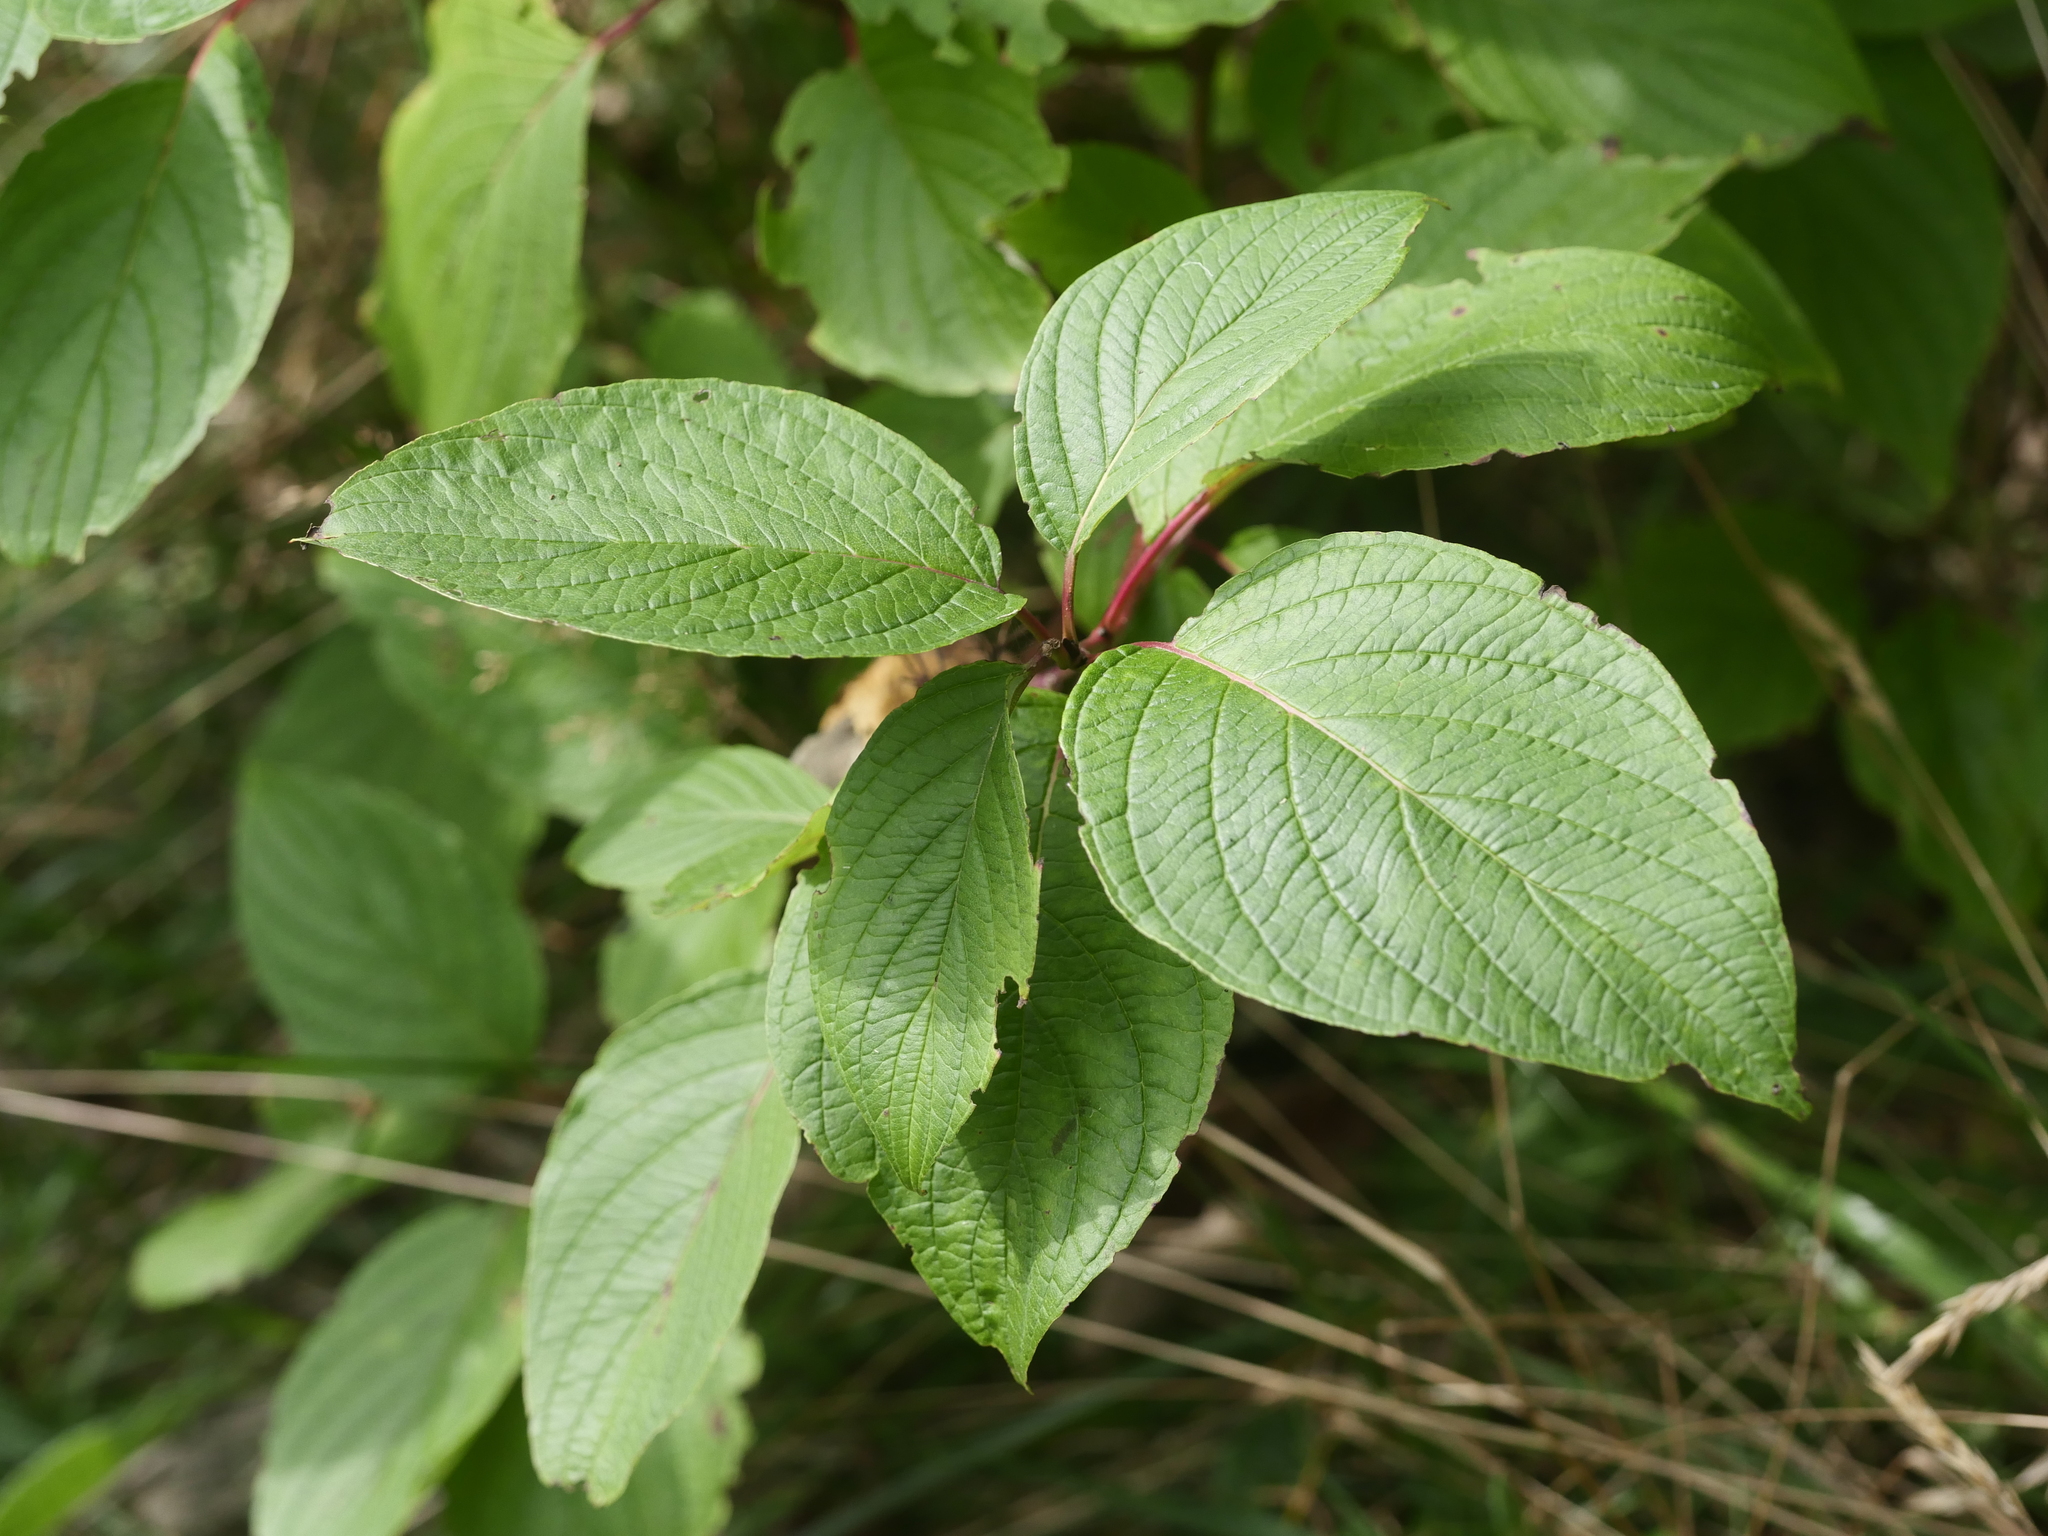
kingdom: Plantae
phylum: Tracheophyta
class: Magnoliopsida
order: Cornales
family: Cornaceae
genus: Cornus
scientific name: Cornus sericea
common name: Red-osier dogwood
